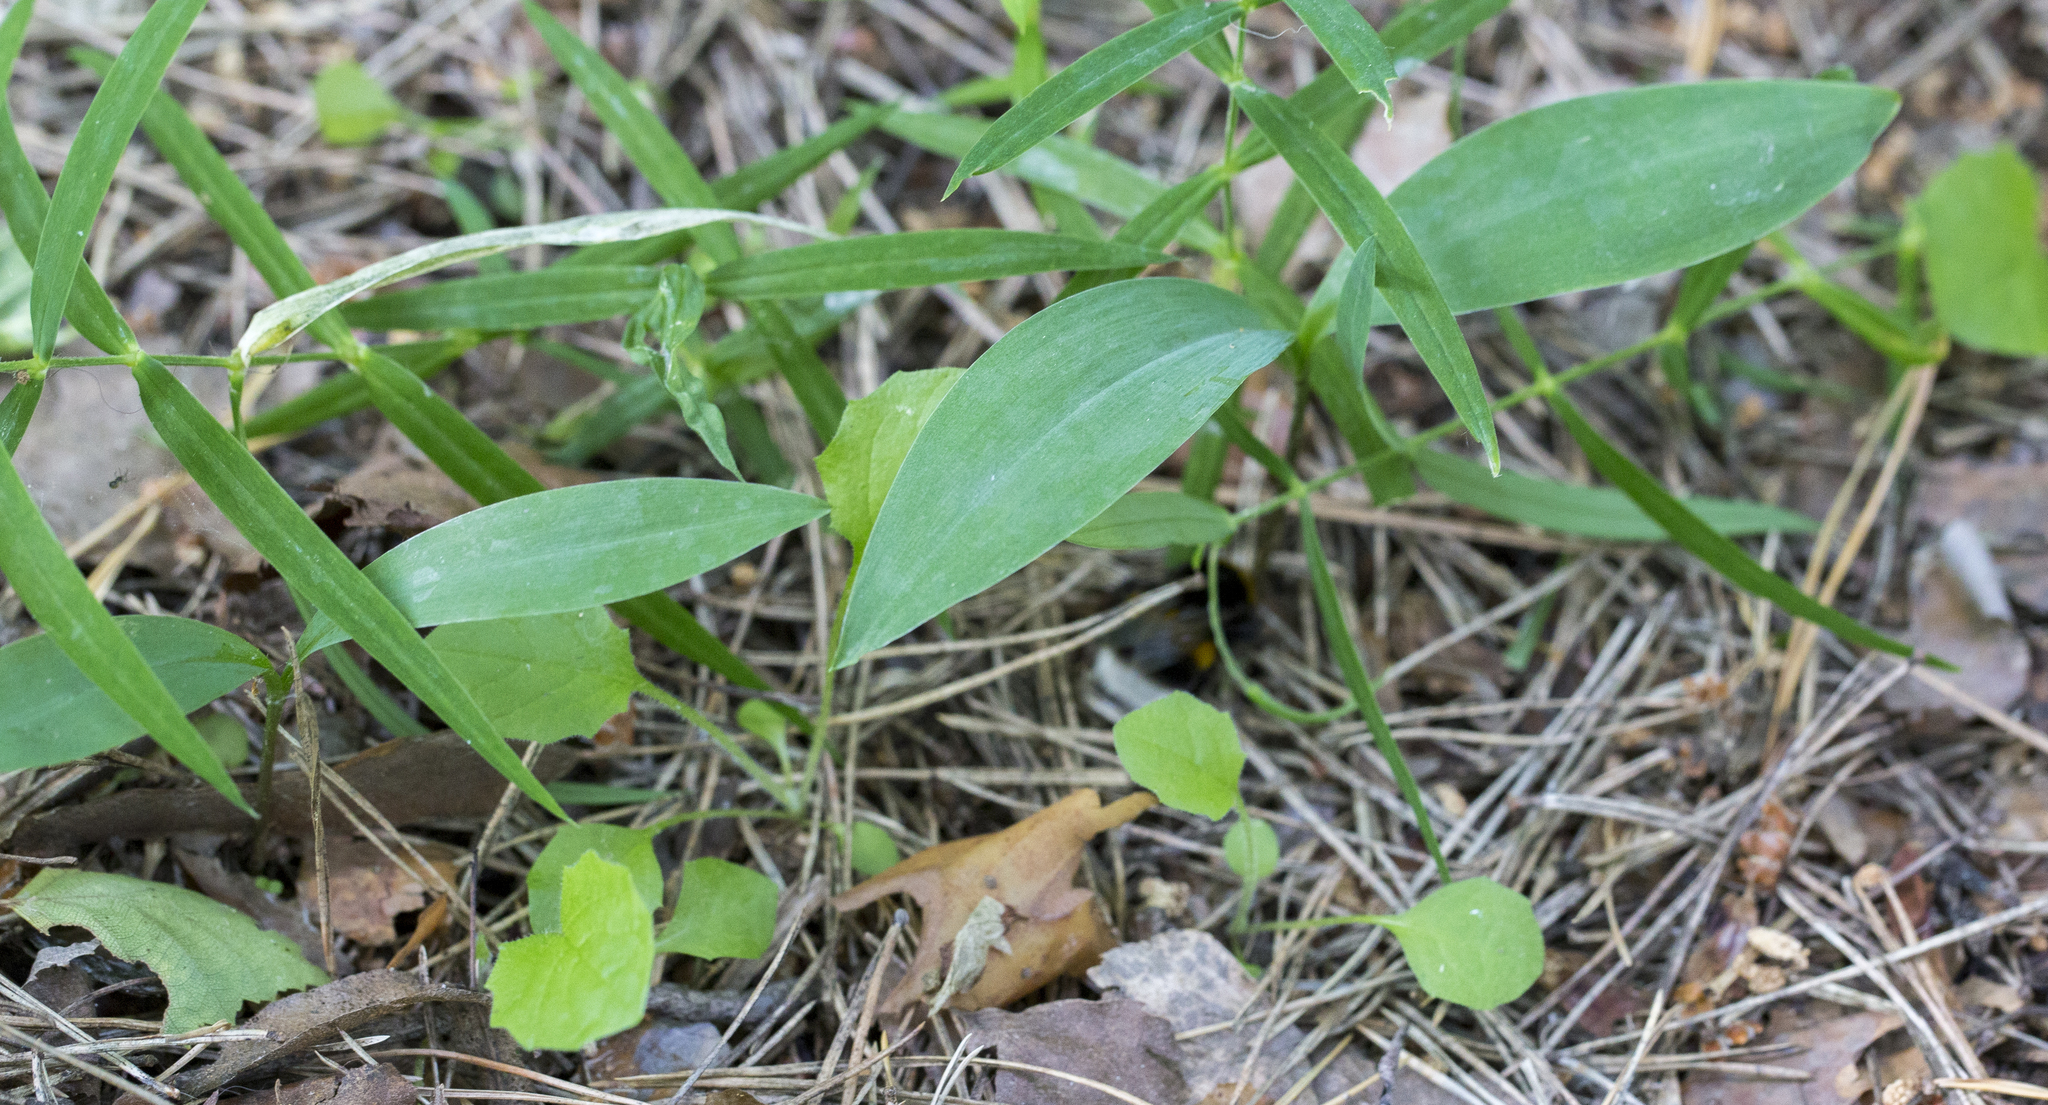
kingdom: Plantae
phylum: Tracheophyta
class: Liliopsida
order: Asparagales
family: Asparagaceae
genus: Convallaria
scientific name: Convallaria majalis
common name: Lily-of-the-valley
